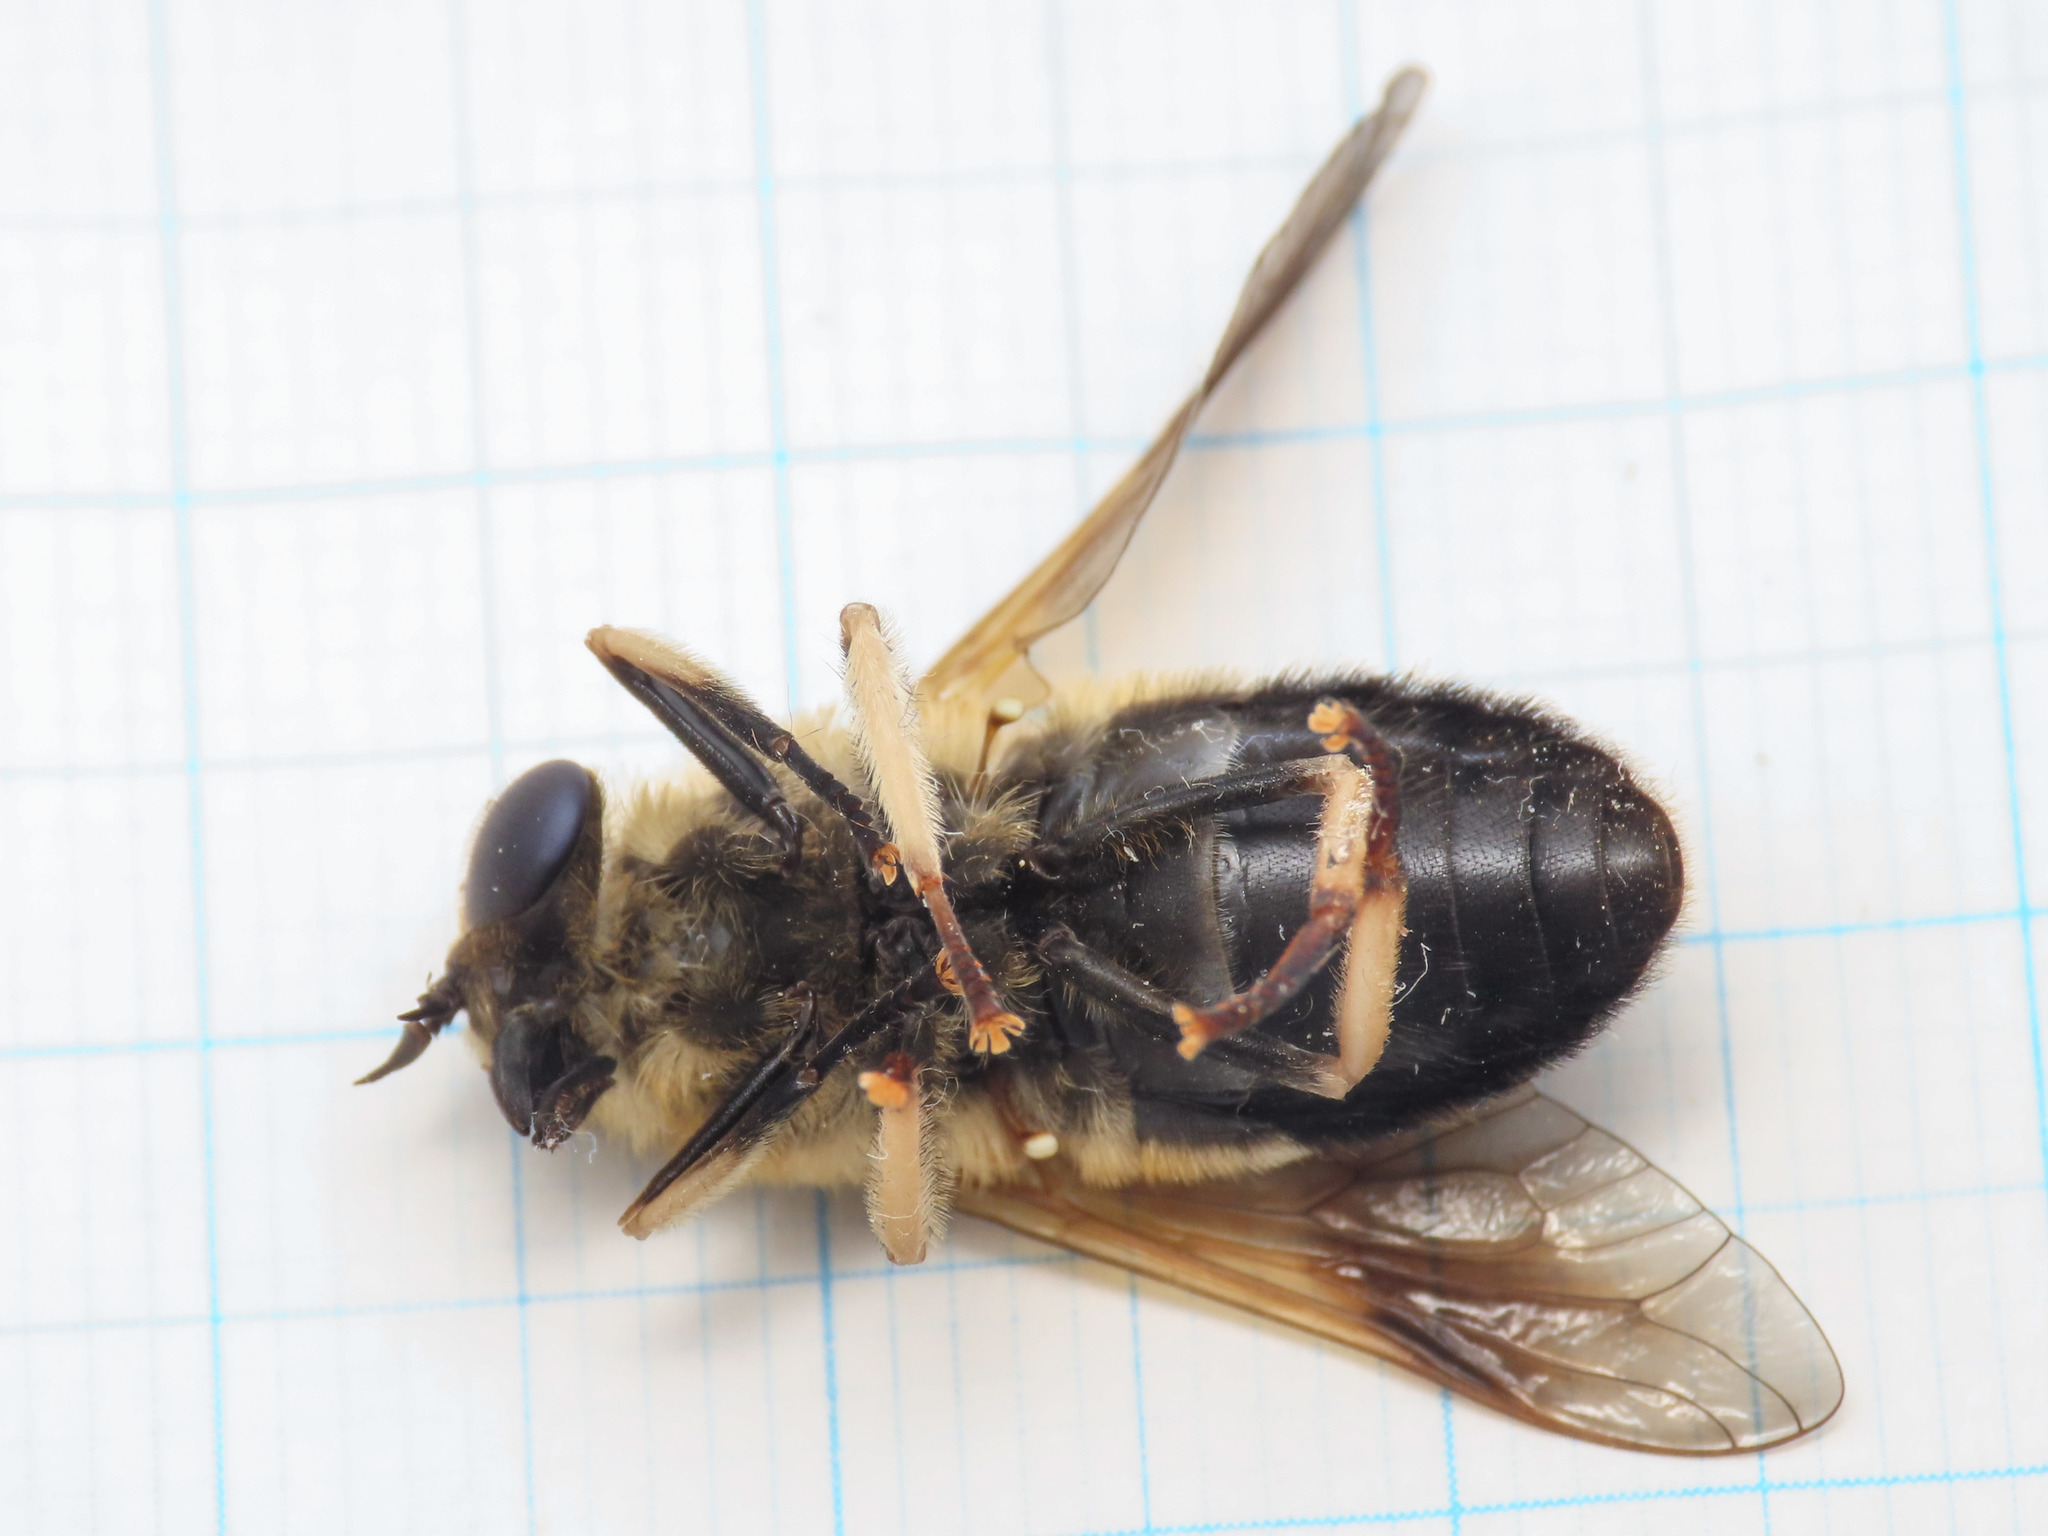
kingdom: Animalia
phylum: Arthropoda
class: Insecta
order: Diptera
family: Tabanidae
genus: Therioplectes
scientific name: Therioplectes tunicatus
